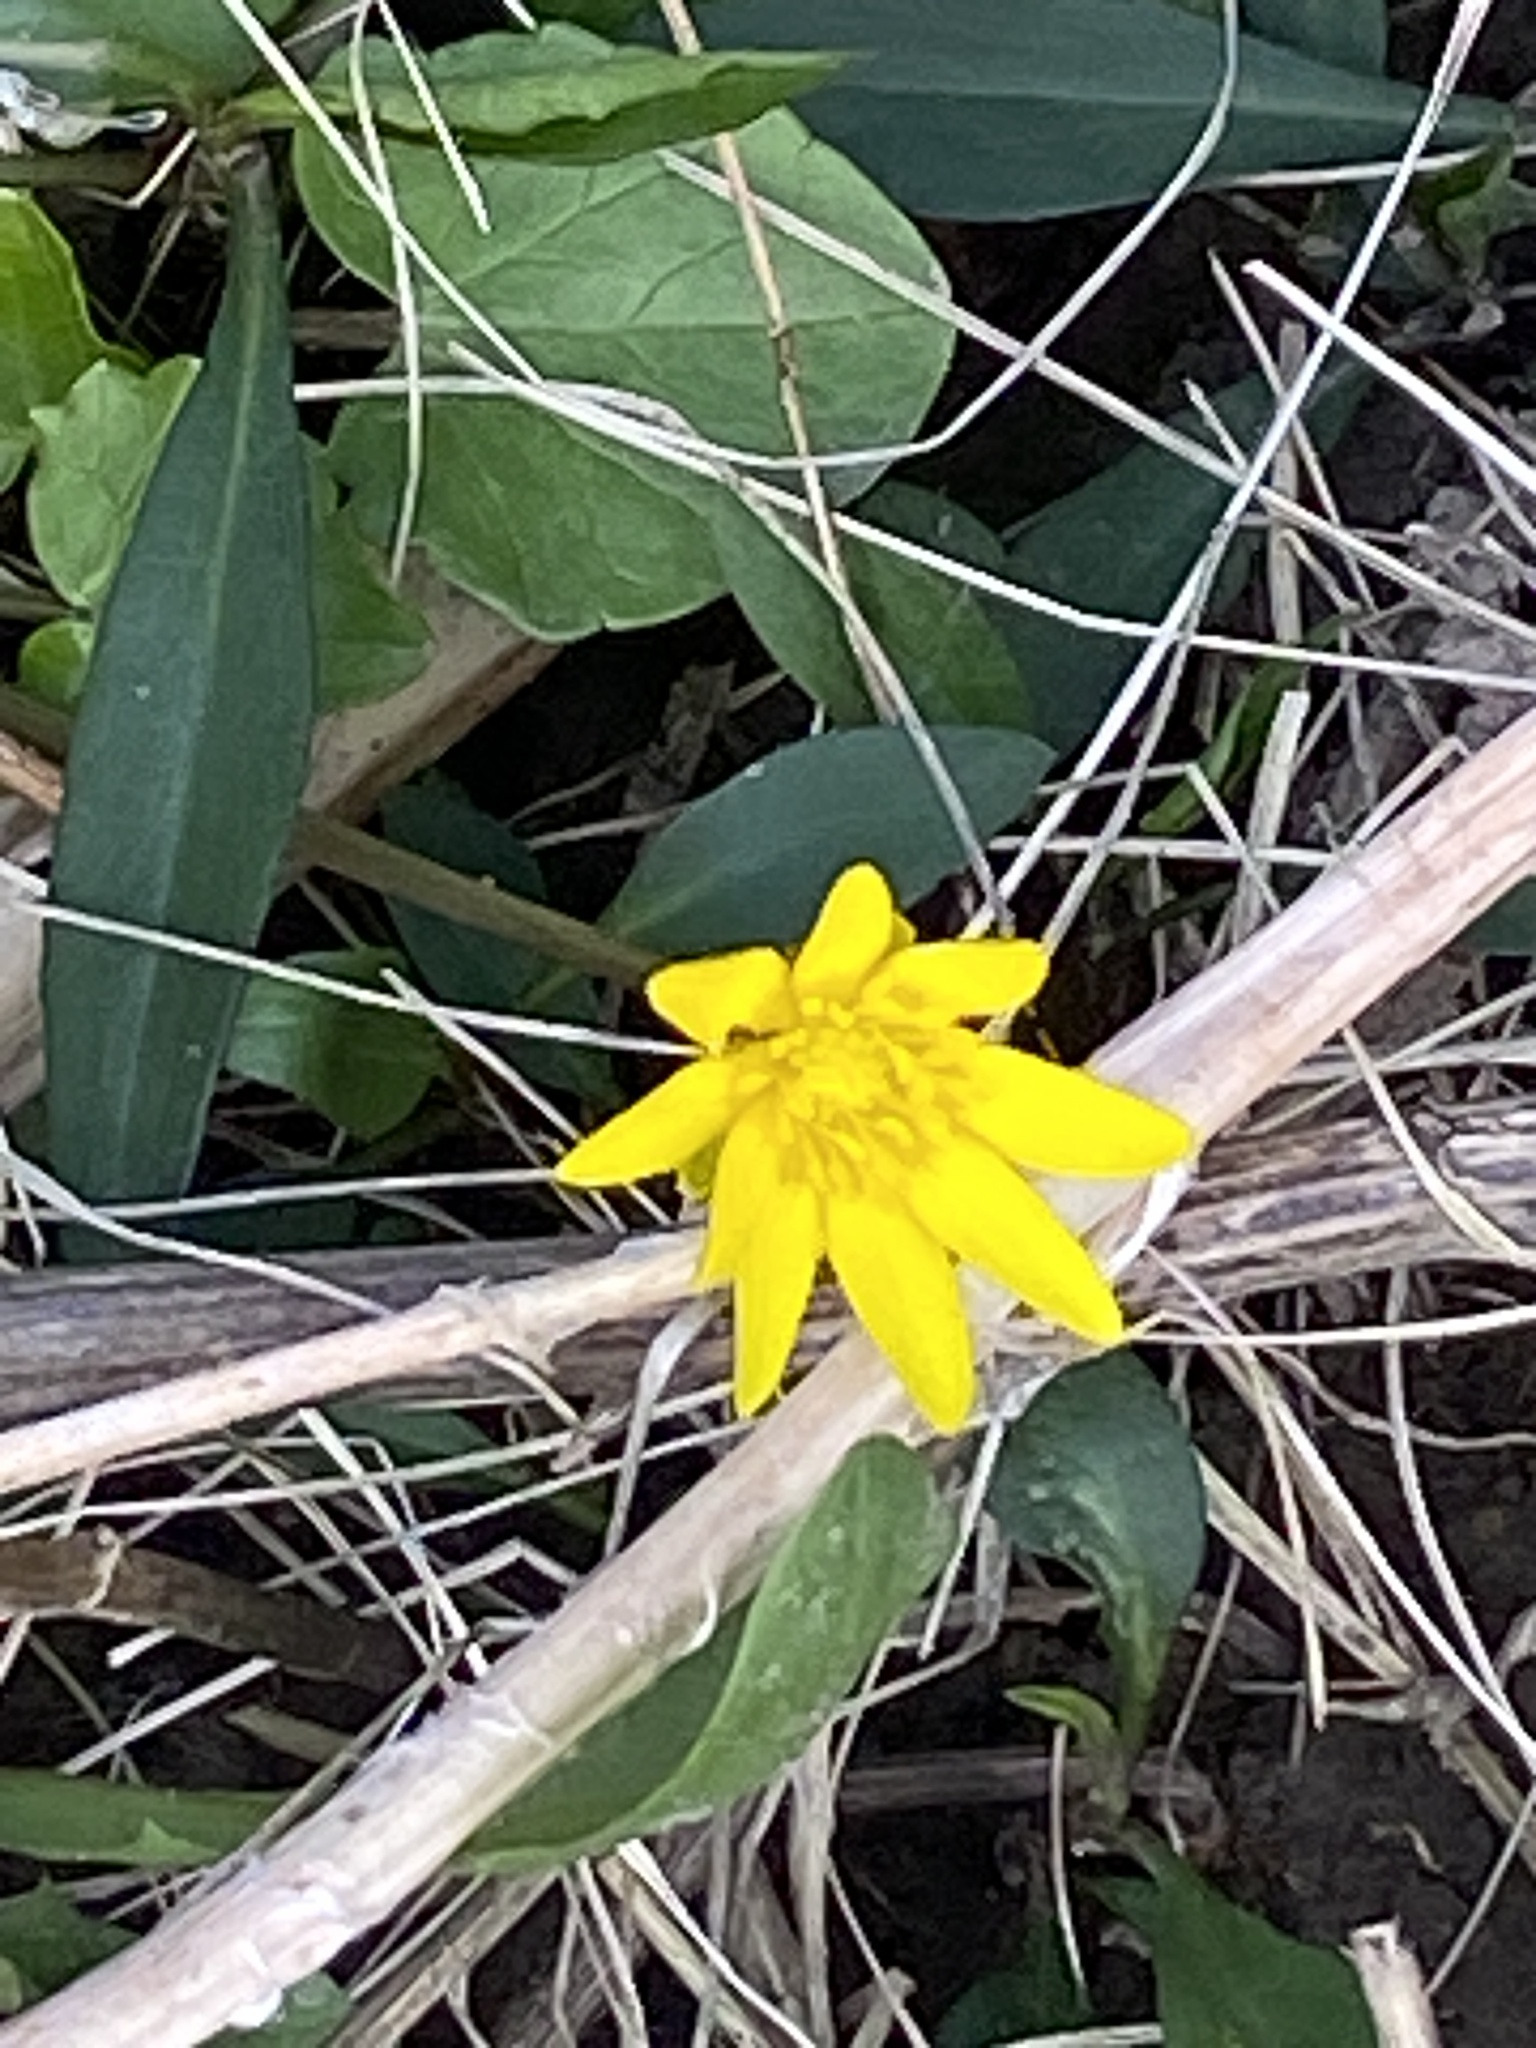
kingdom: Plantae
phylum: Tracheophyta
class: Magnoliopsida
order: Ranunculales
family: Ranunculaceae
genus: Ficaria
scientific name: Ficaria verna
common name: Lesser celandine
